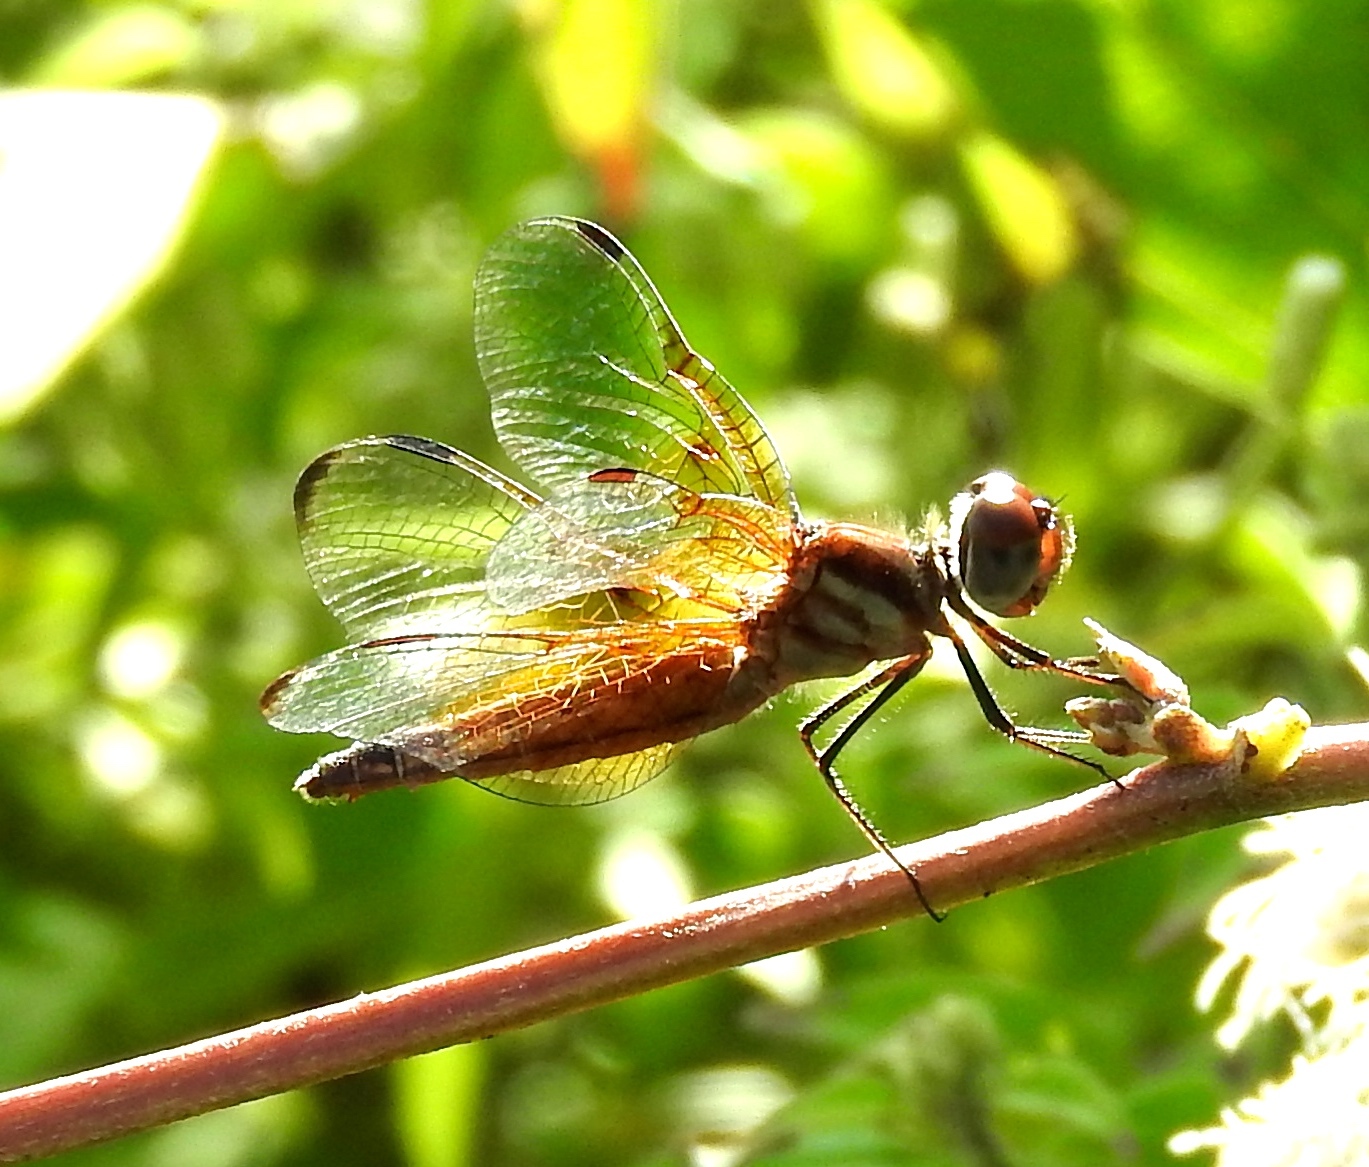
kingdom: Animalia
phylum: Arthropoda
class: Insecta
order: Odonata
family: Libellulidae
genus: Perithemis
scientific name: Perithemis domitia
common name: Slough amberwing
